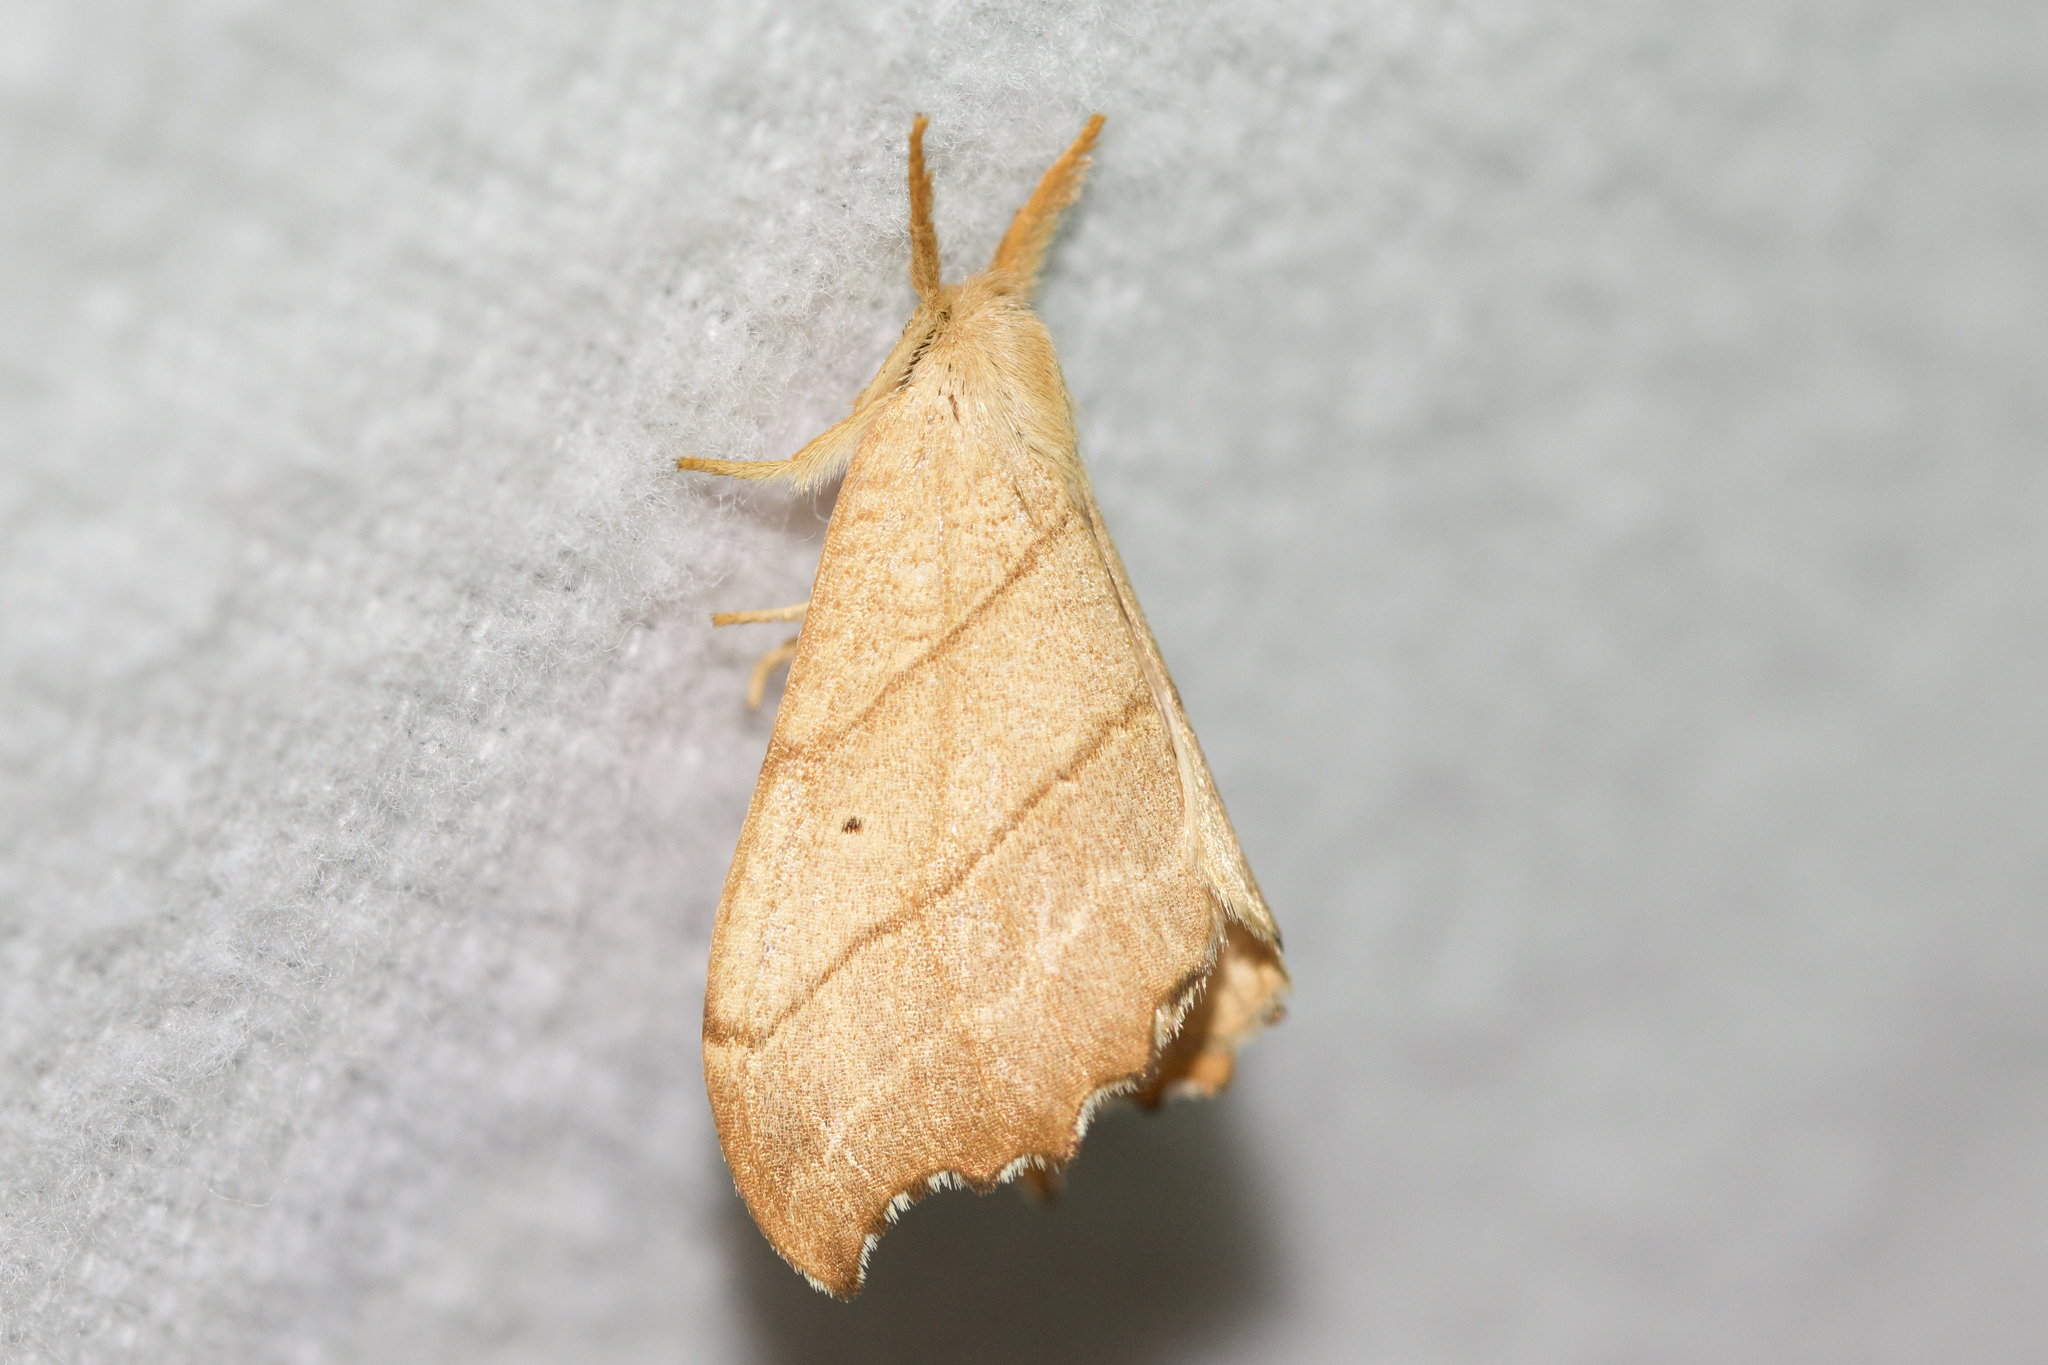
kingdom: Animalia
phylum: Arthropoda
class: Insecta
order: Lepidoptera
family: Drepanidae
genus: Falcaria
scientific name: Falcaria bilineata
